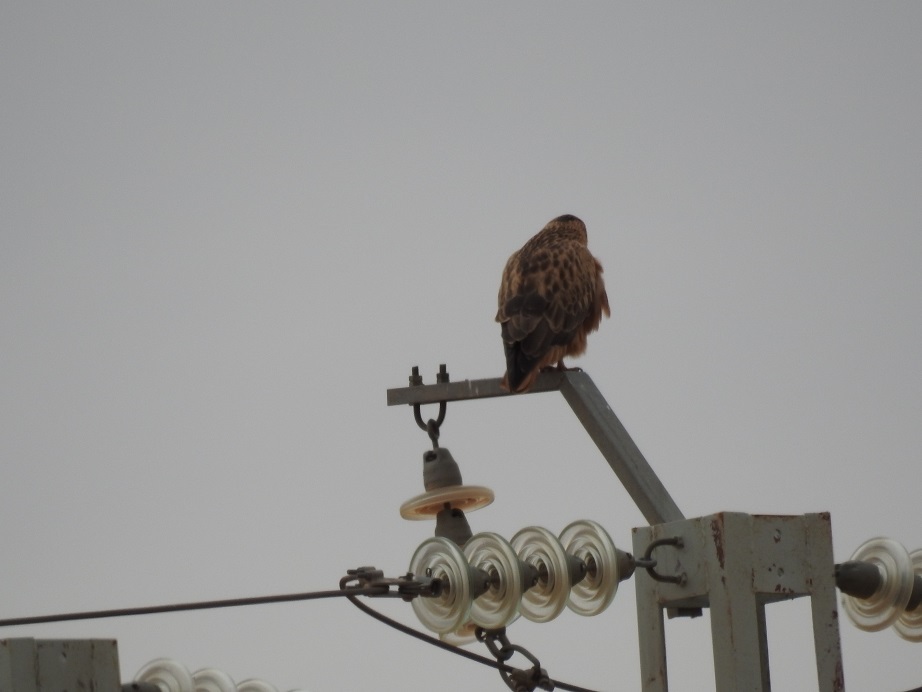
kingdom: Animalia
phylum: Chordata
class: Aves
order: Accipitriformes
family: Accipitridae
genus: Buteo
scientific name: Buteo rufinus
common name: Long-legged buzzard
